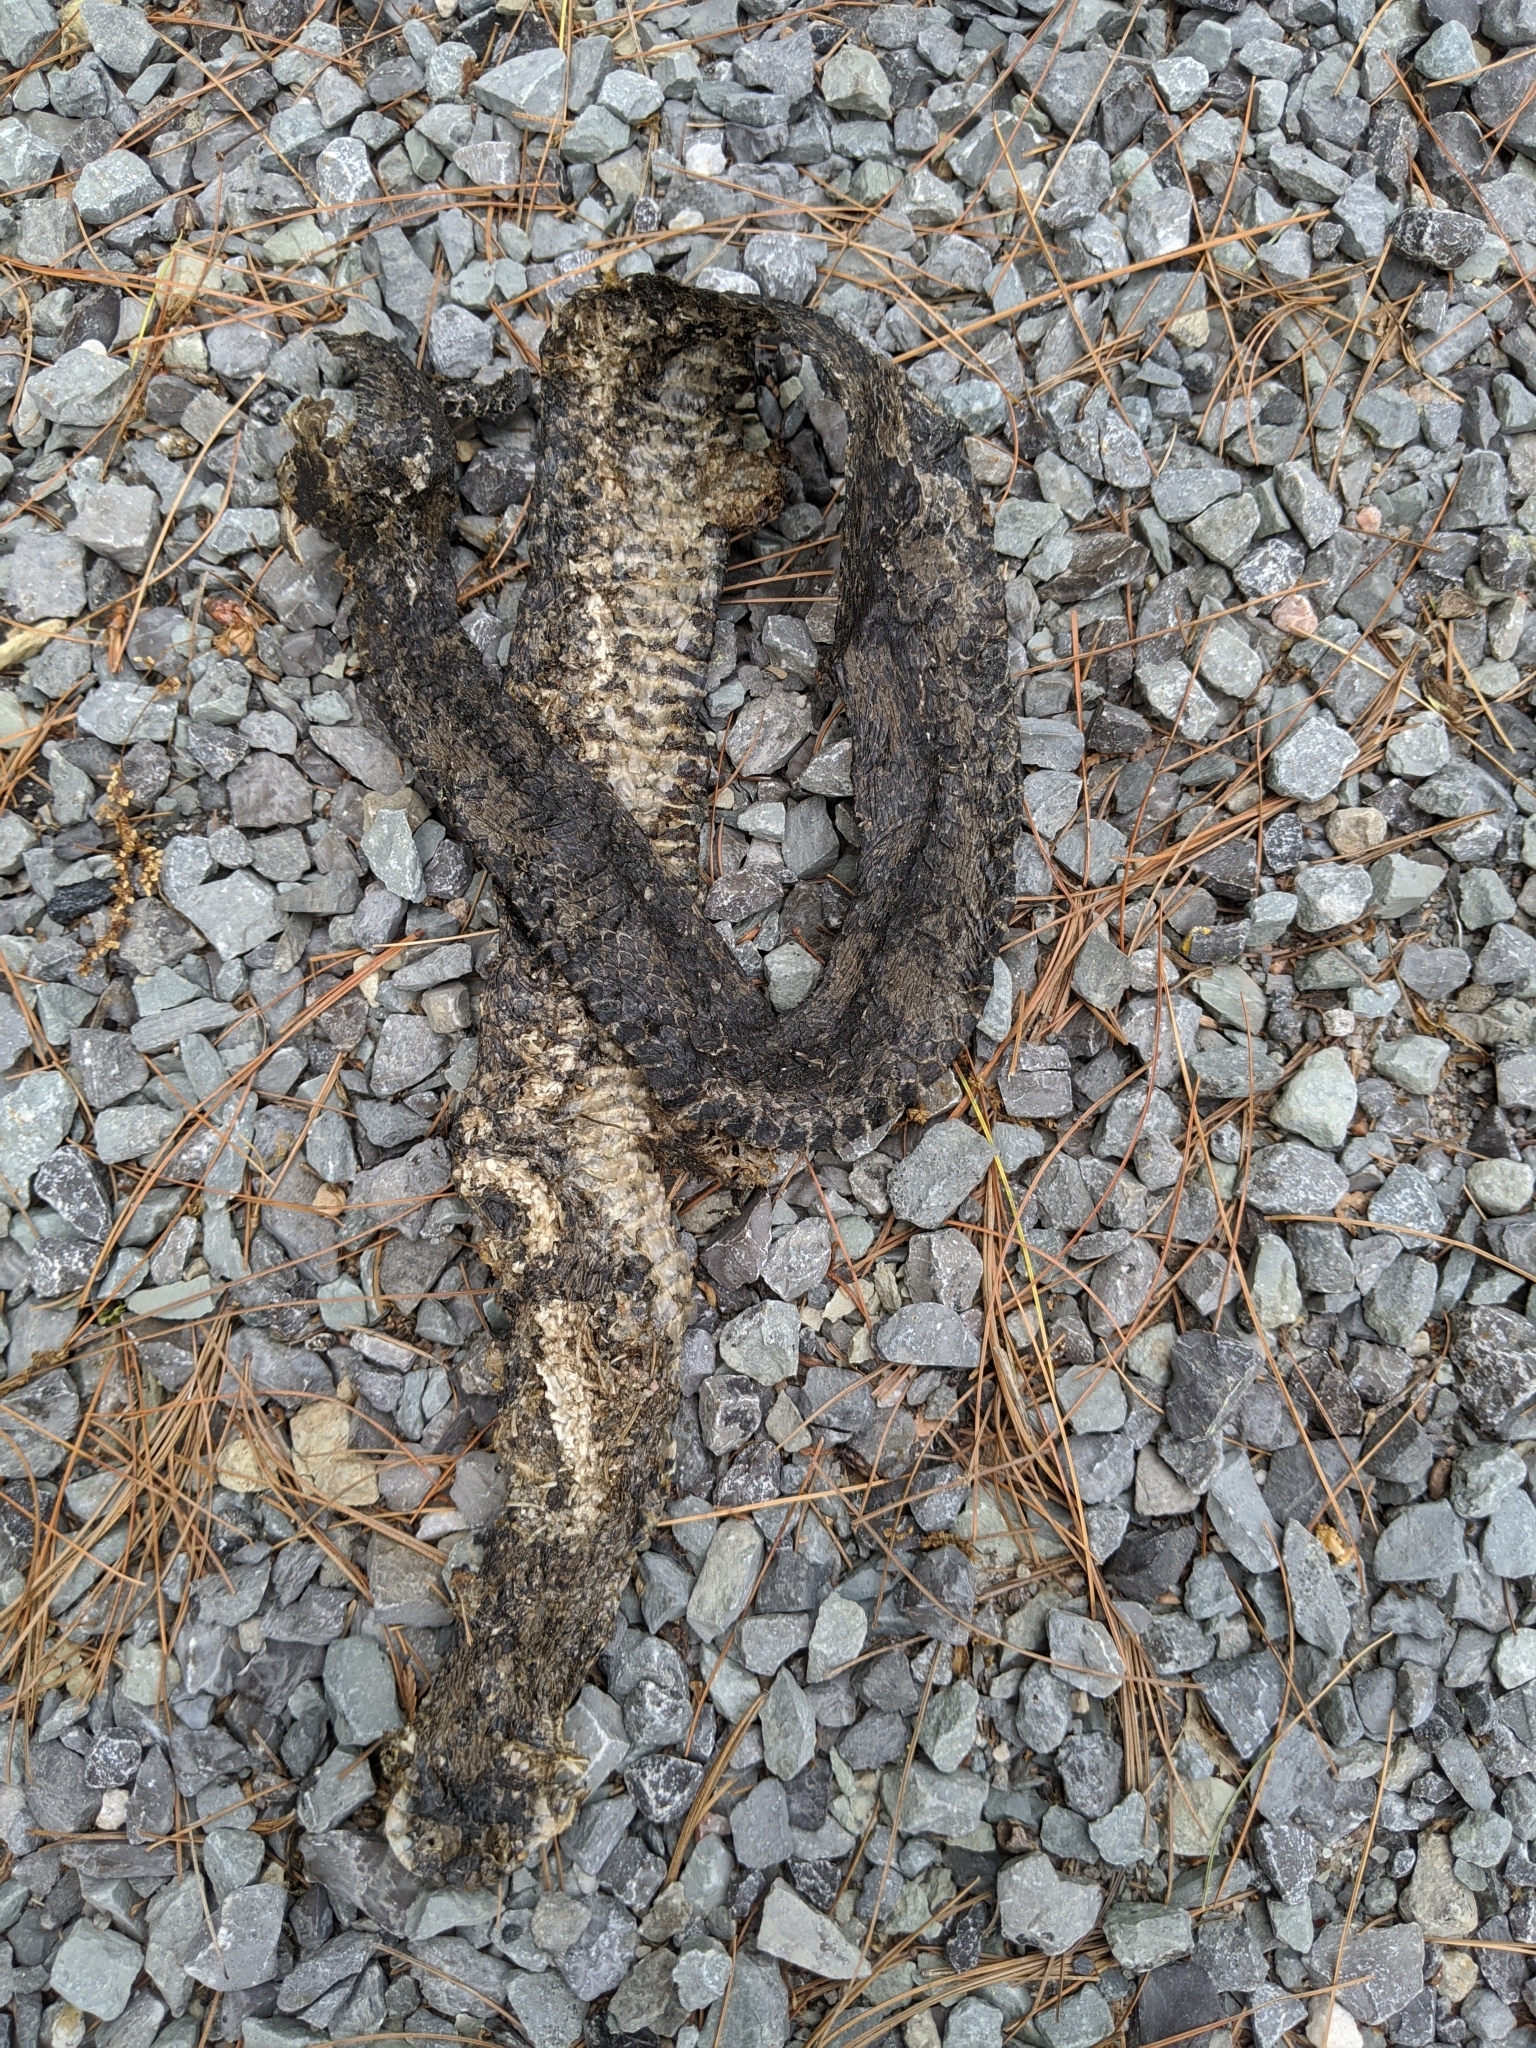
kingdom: Animalia
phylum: Chordata
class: Squamata
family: Colubridae
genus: Pantherophis
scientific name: Pantherophis spiloides
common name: Gray rat snake
